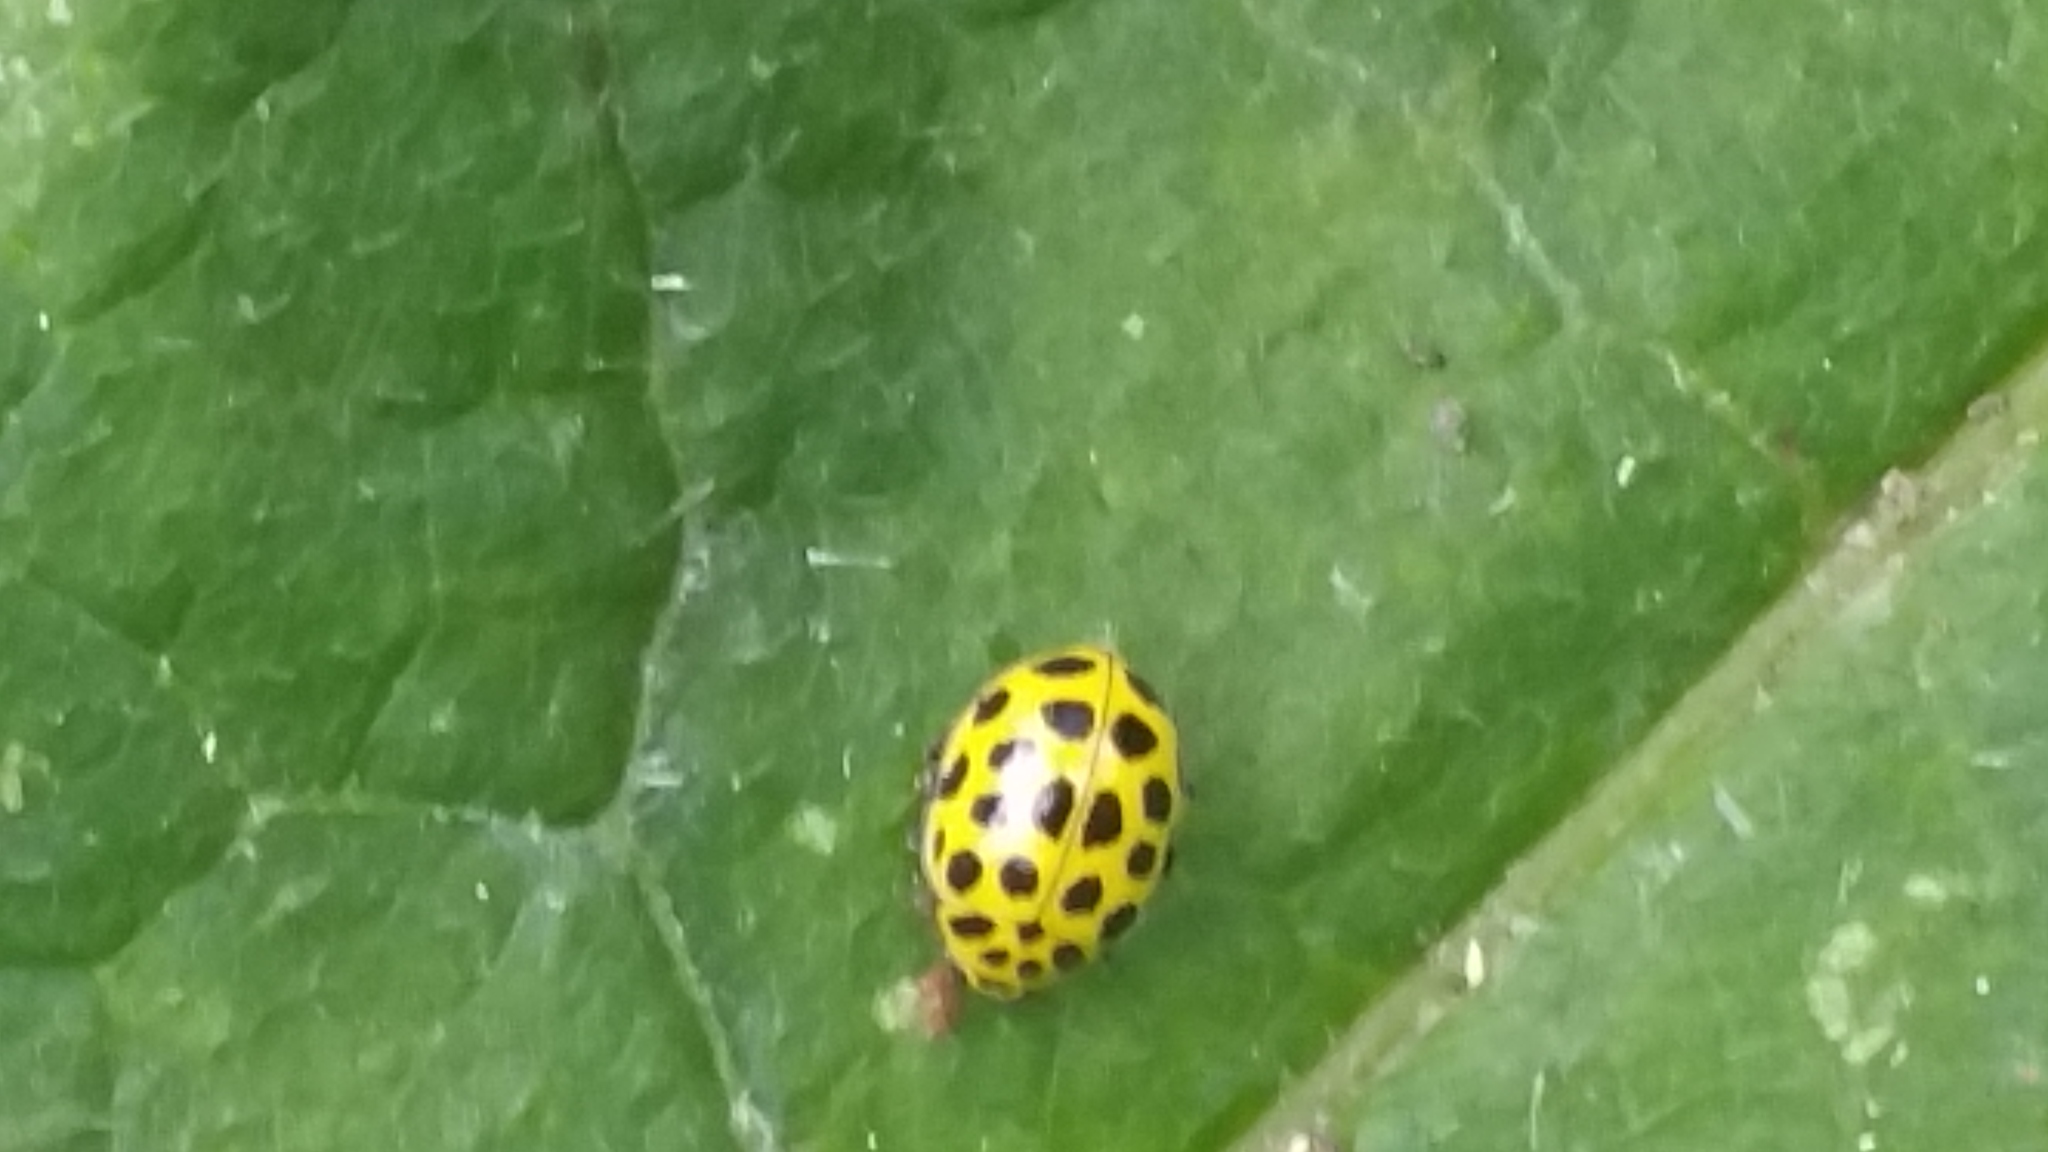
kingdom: Animalia
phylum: Arthropoda
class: Insecta
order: Coleoptera
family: Coccinellidae
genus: Psyllobora
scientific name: Psyllobora vigintiduopunctata
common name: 22-spot ladybird
